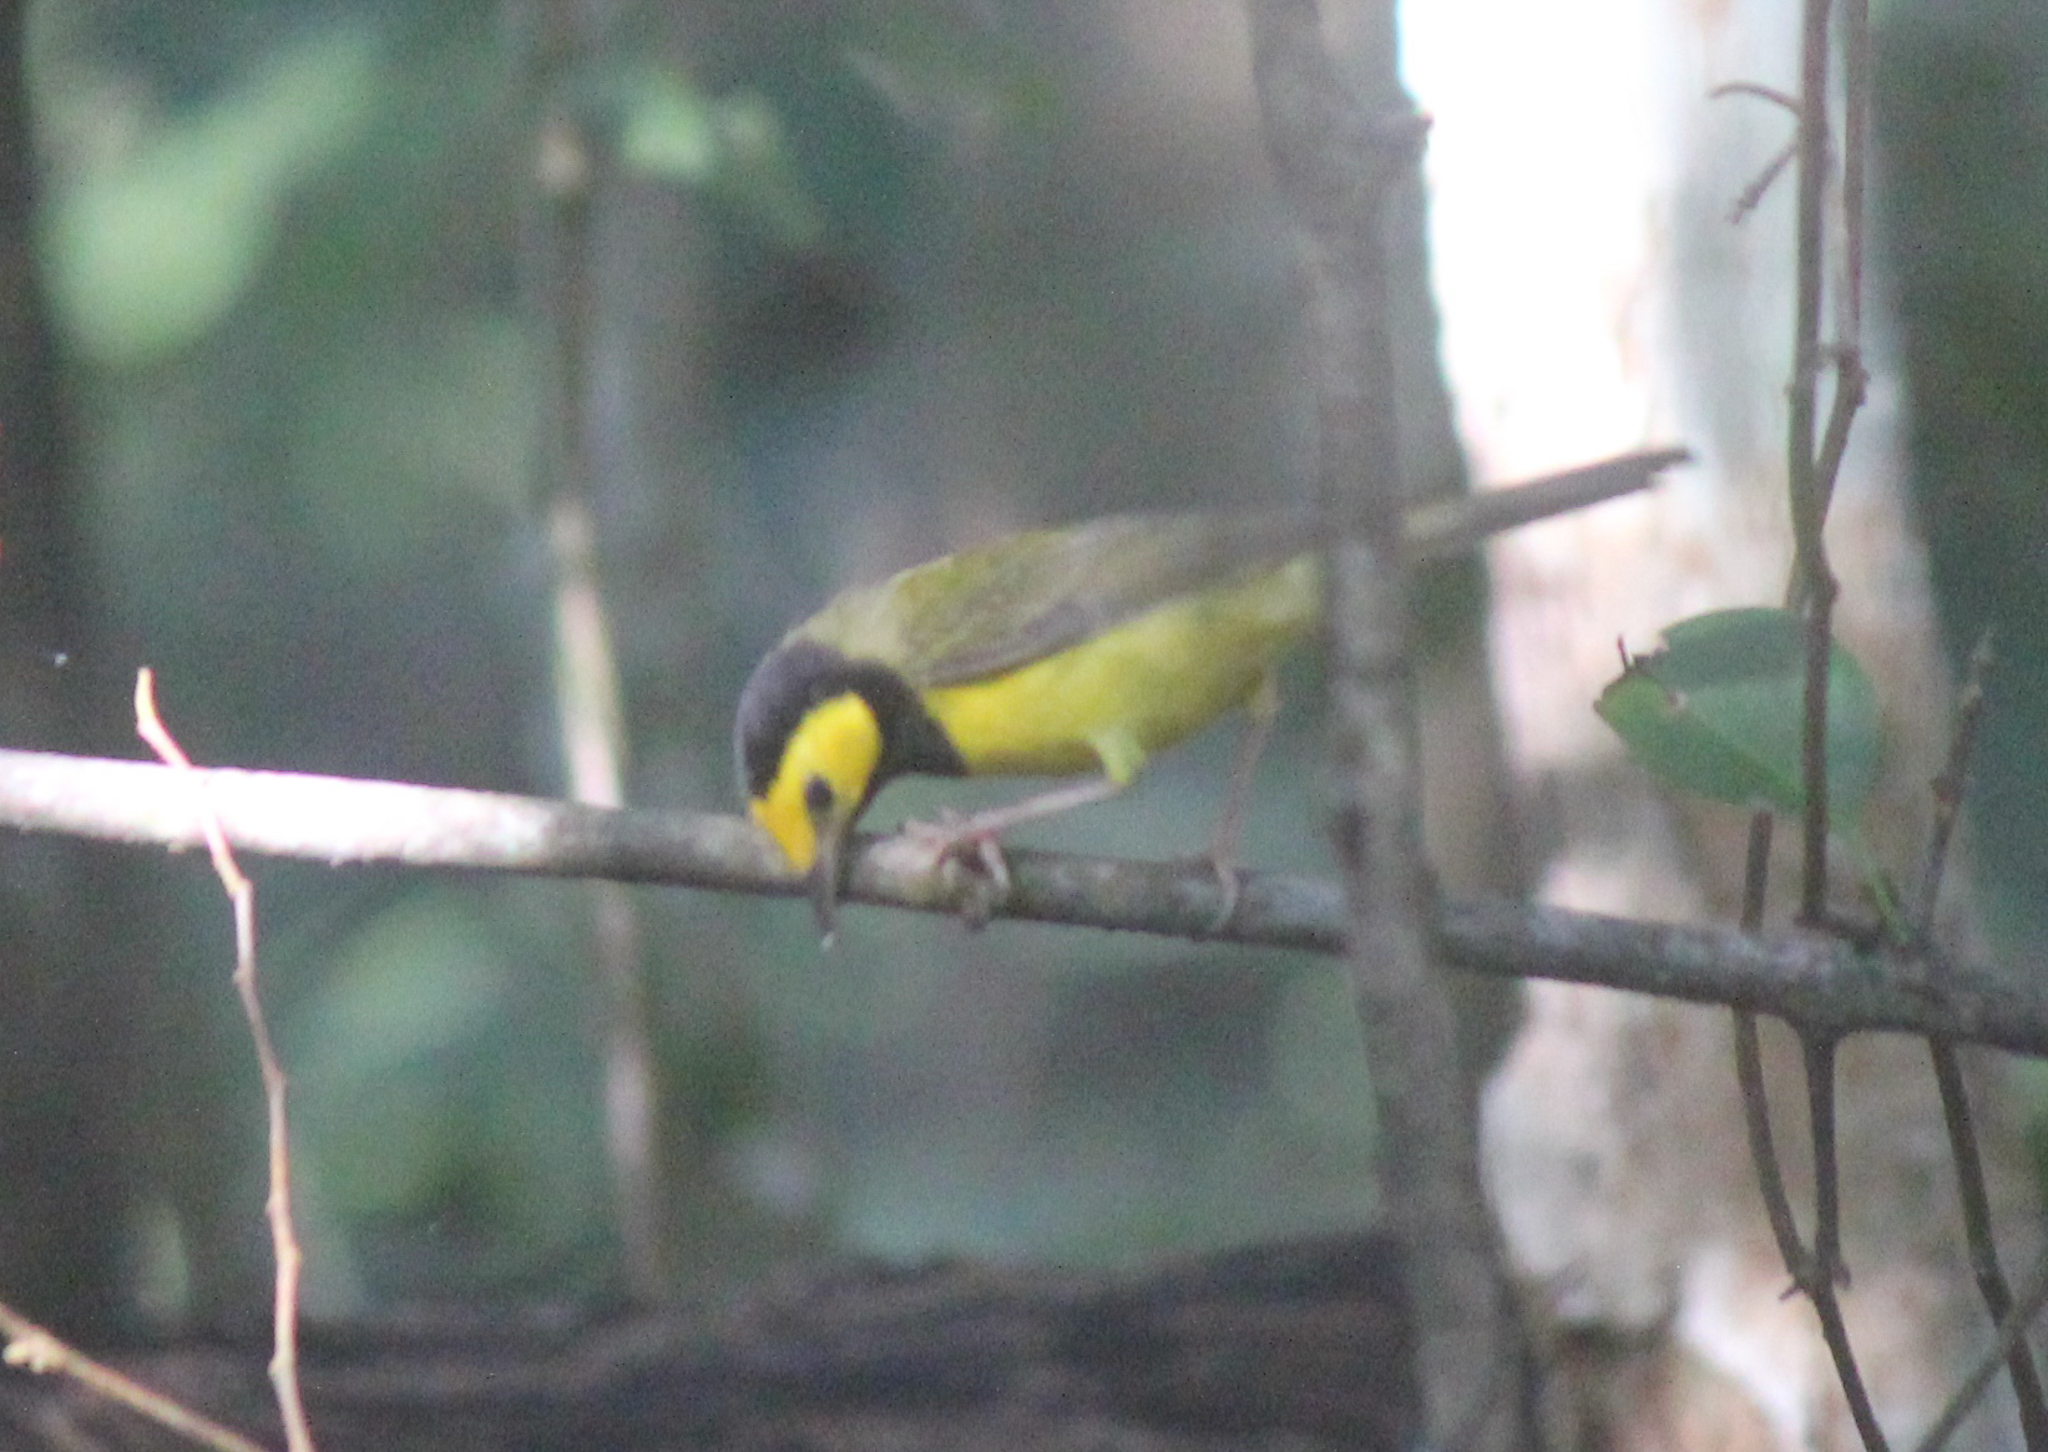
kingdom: Animalia
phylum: Chordata
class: Aves
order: Passeriformes
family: Parulidae
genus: Setophaga
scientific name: Setophaga citrina
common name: Hooded warbler
